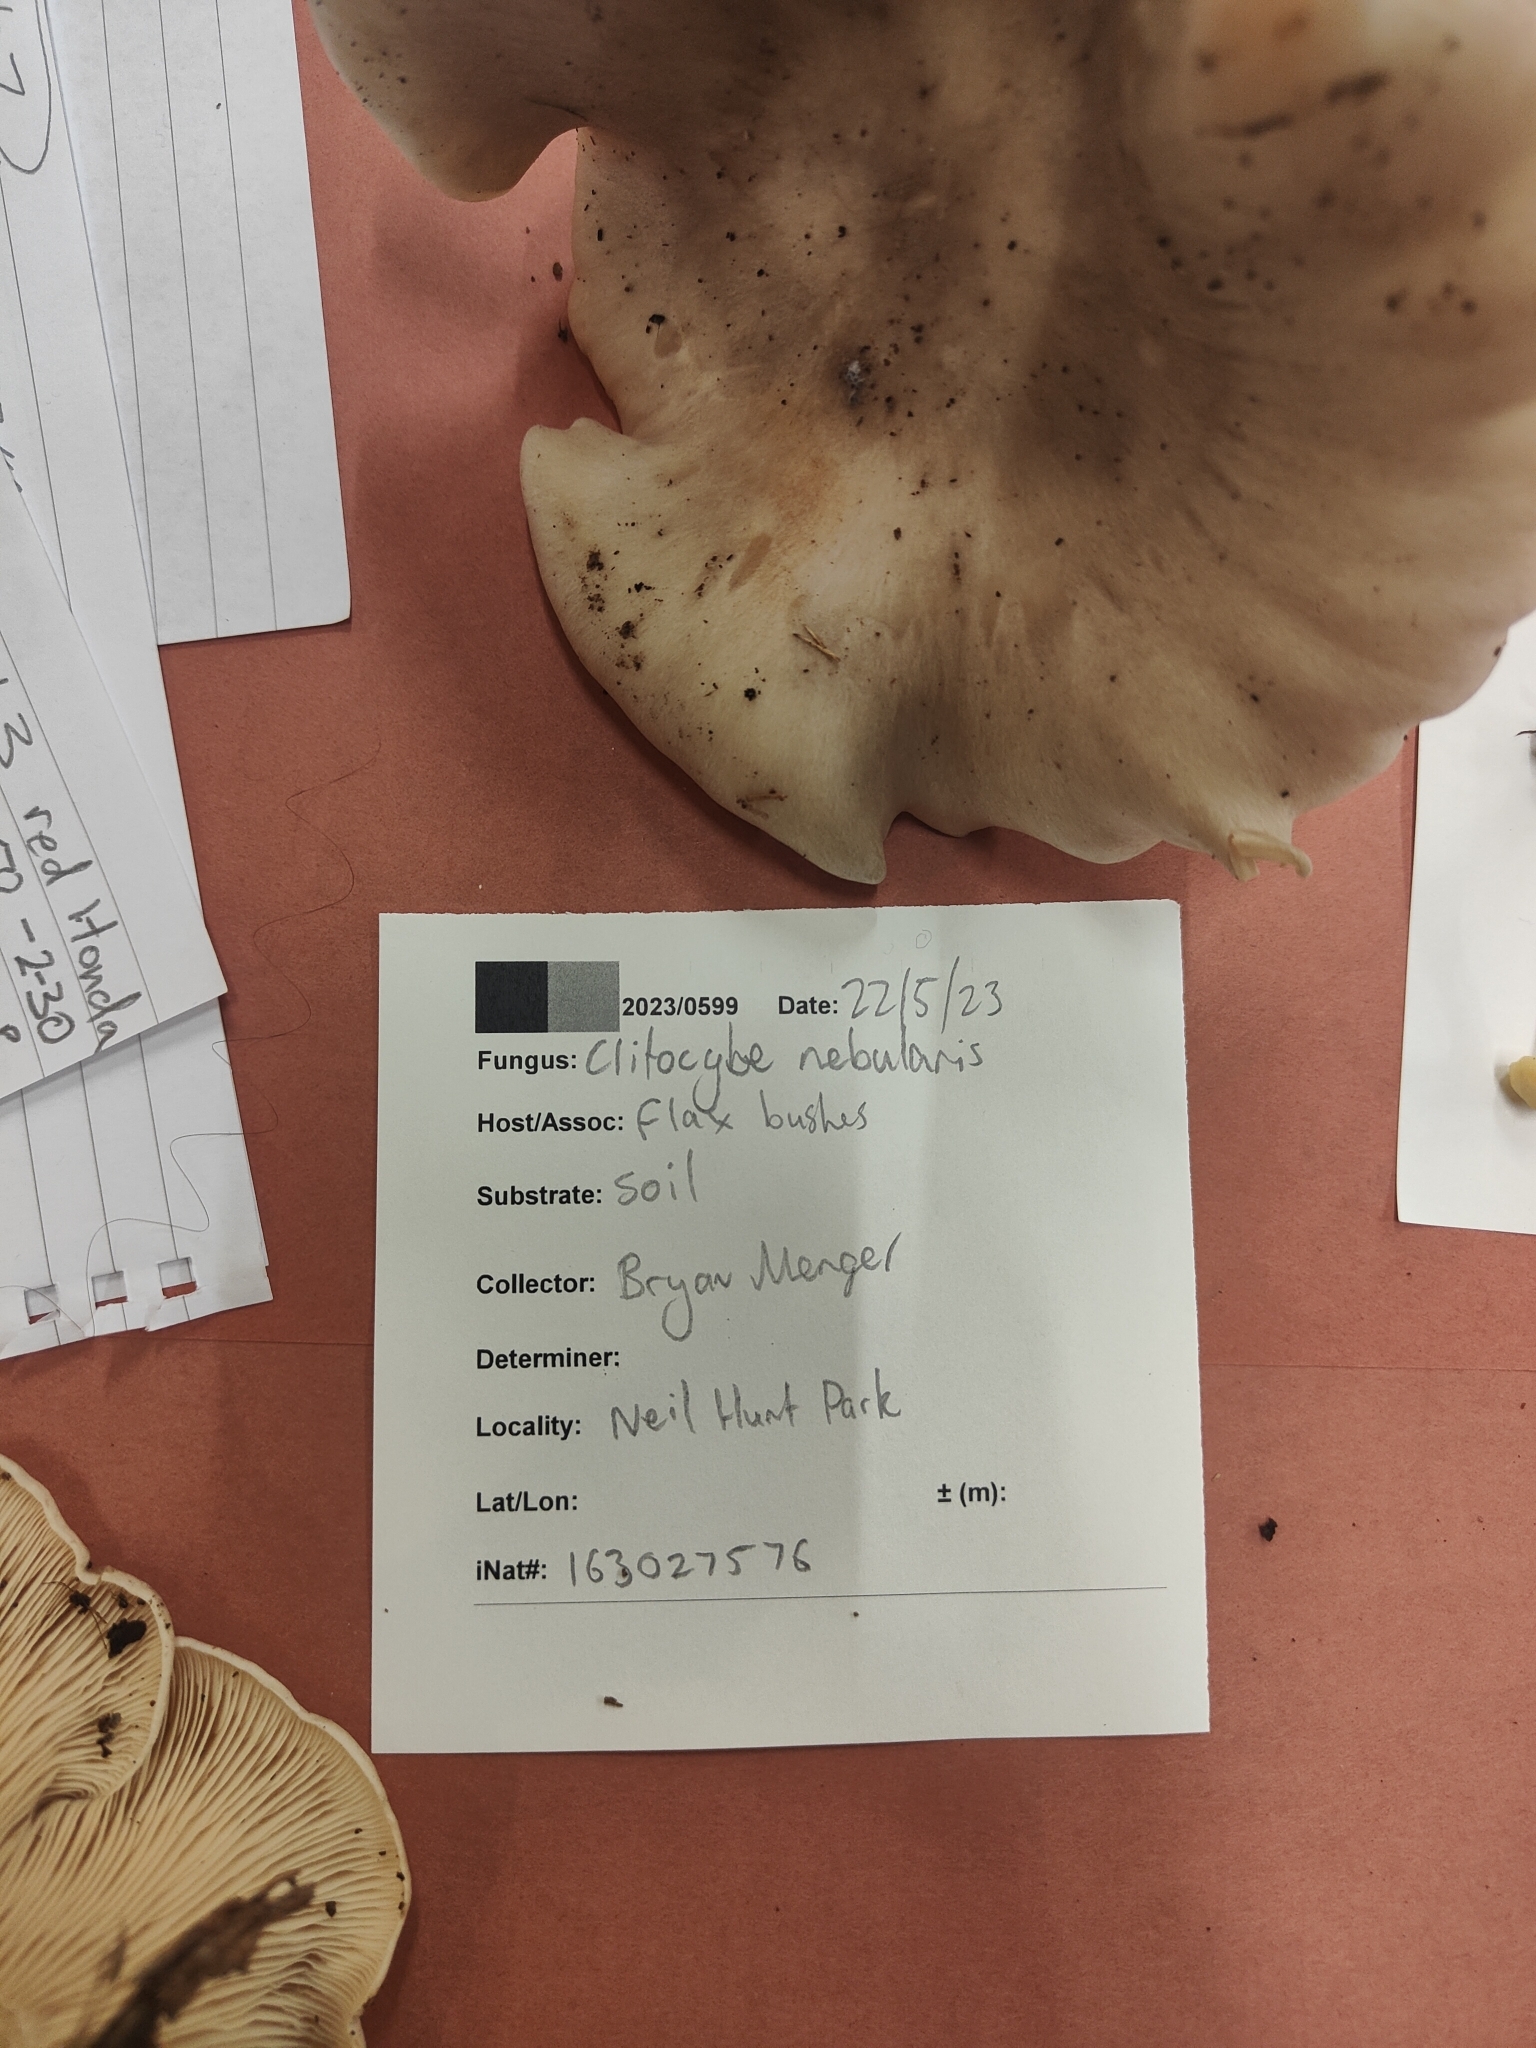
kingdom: Fungi
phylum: Basidiomycota
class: Agaricomycetes
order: Agaricales
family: Tricholomataceae
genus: Clitocybe
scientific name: Clitocybe nebularis
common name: Clouded agaric
